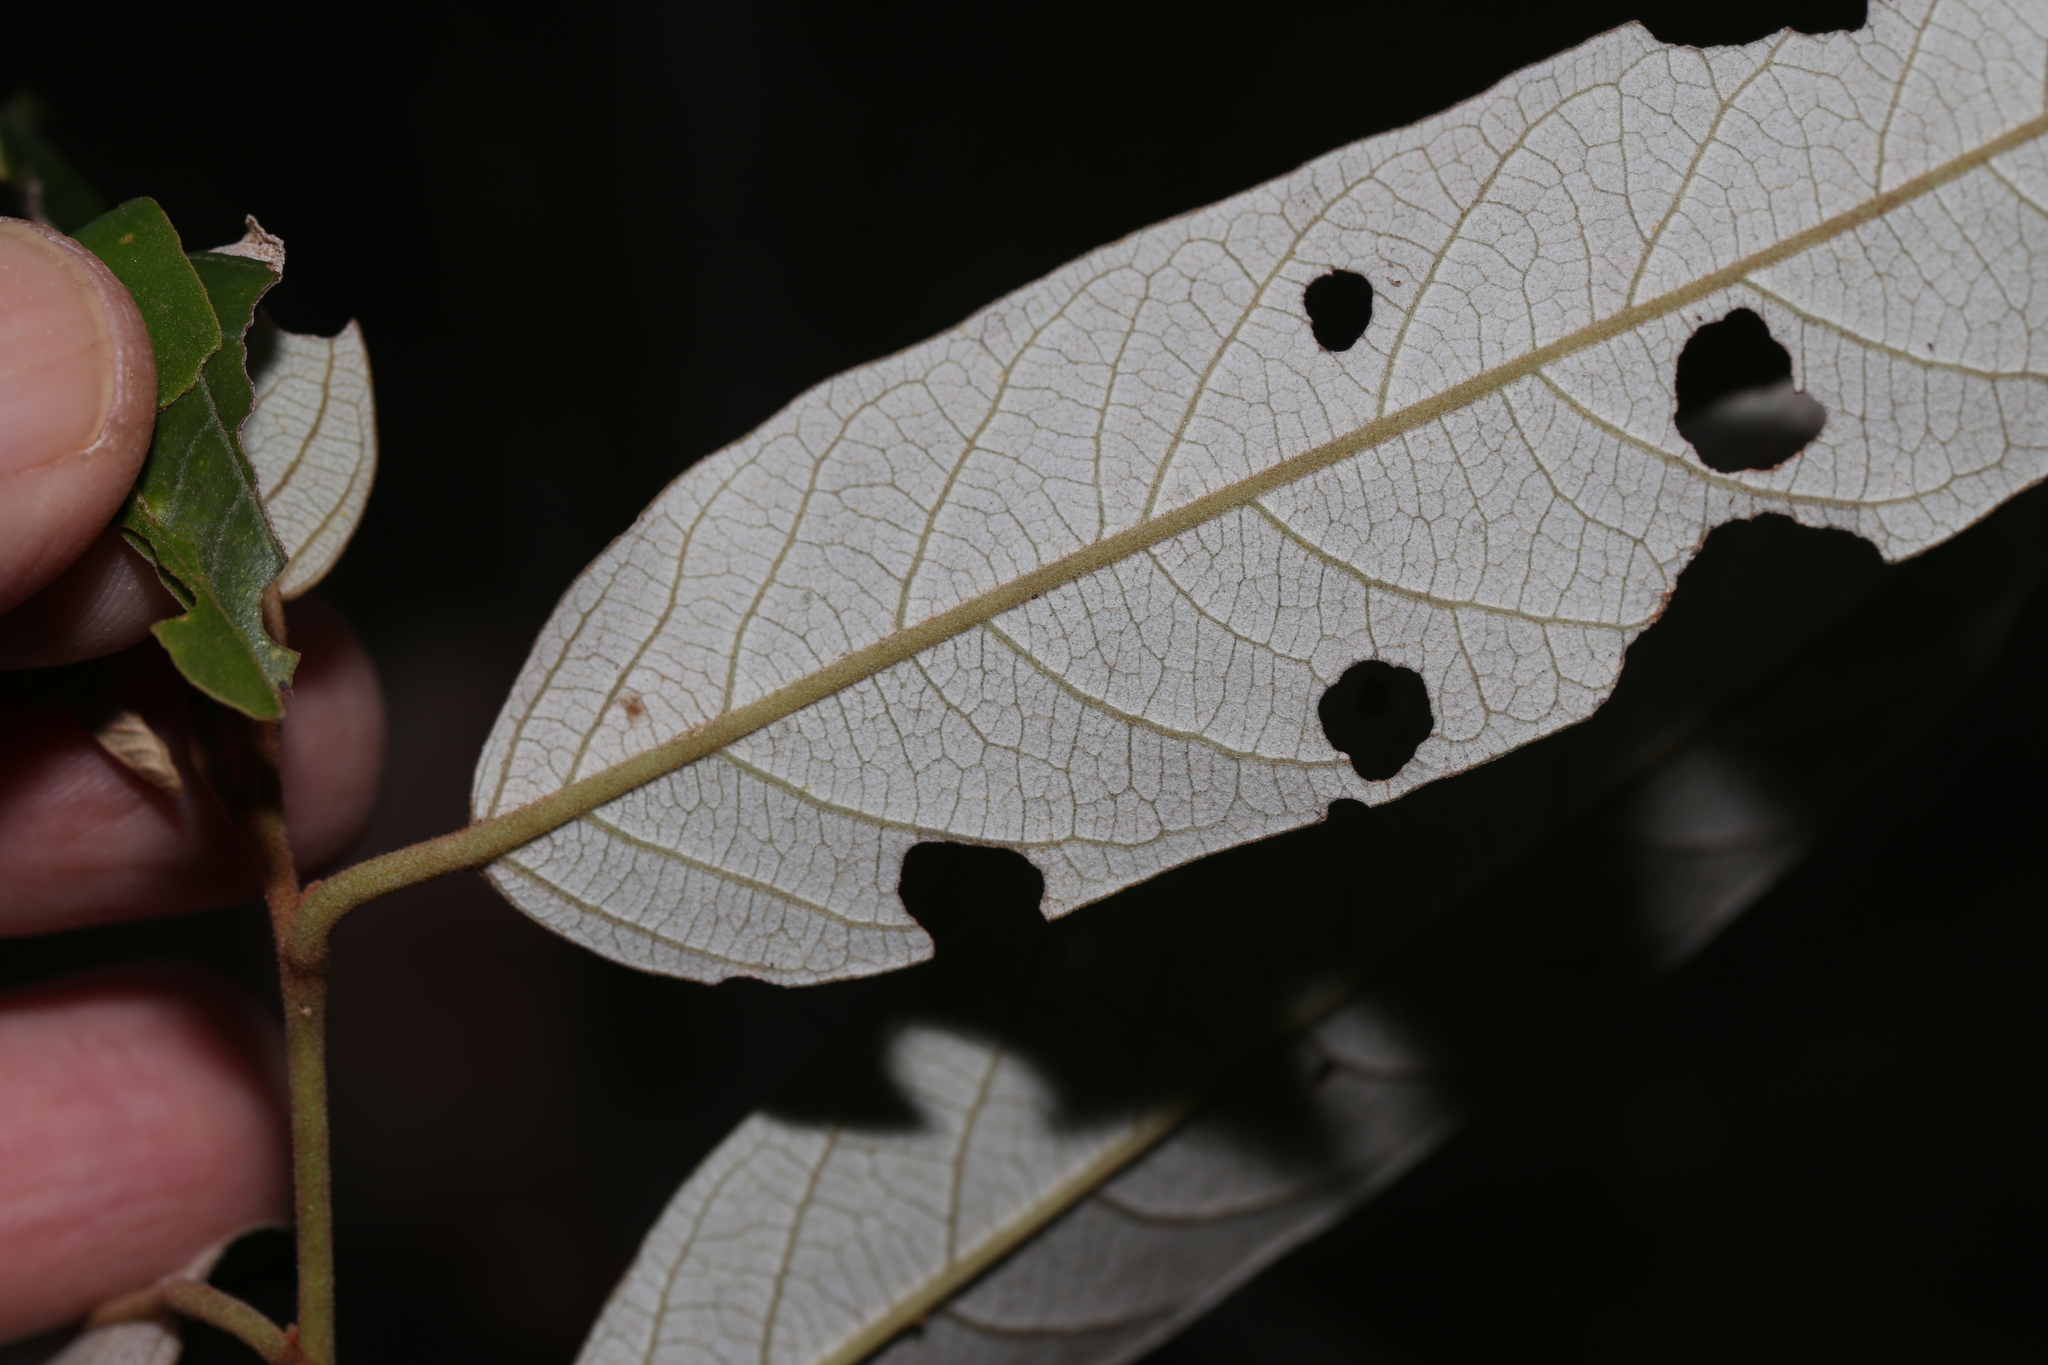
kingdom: Plantae
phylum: Tracheophyta
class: Magnoliopsida
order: Rosales
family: Rhamnaceae
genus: Alphitonia
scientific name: Alphitonia excelsa
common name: Red ash
